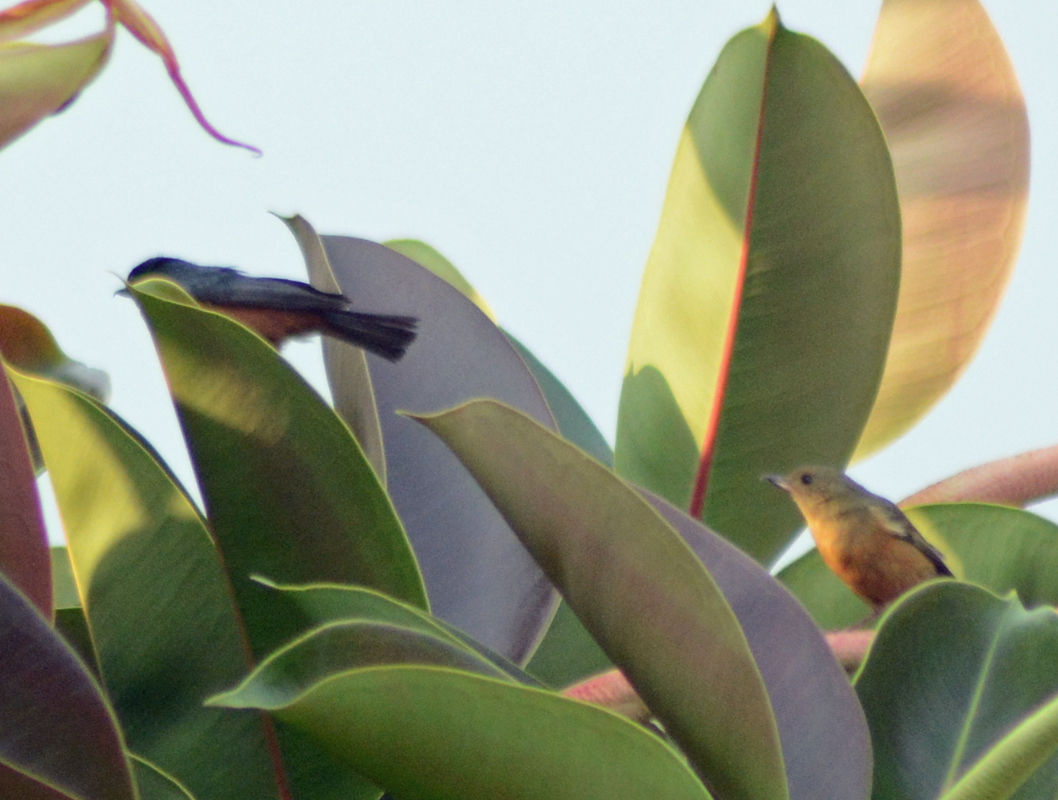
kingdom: Animalia
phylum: Chordata
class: Aves
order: Passeriformes
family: Thraupidae
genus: Diglossa
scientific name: Diglossa baritula
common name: Cinnamon-bellied flowerpiercer
